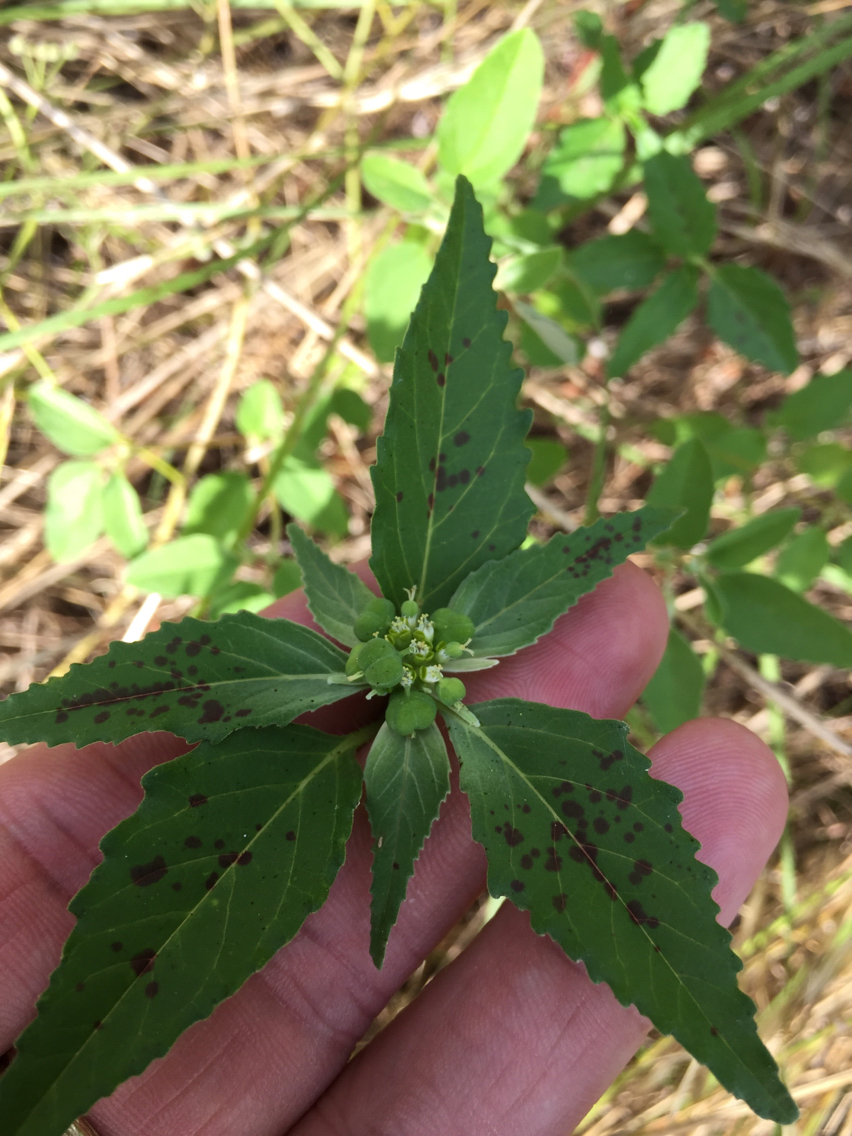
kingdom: Plantae
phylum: Tracheophyta
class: Magnoliopsida
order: Malpighiales
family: Euphorbiaceae
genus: Euphorbia
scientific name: Euphorbia dentata
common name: Dentate spurge
